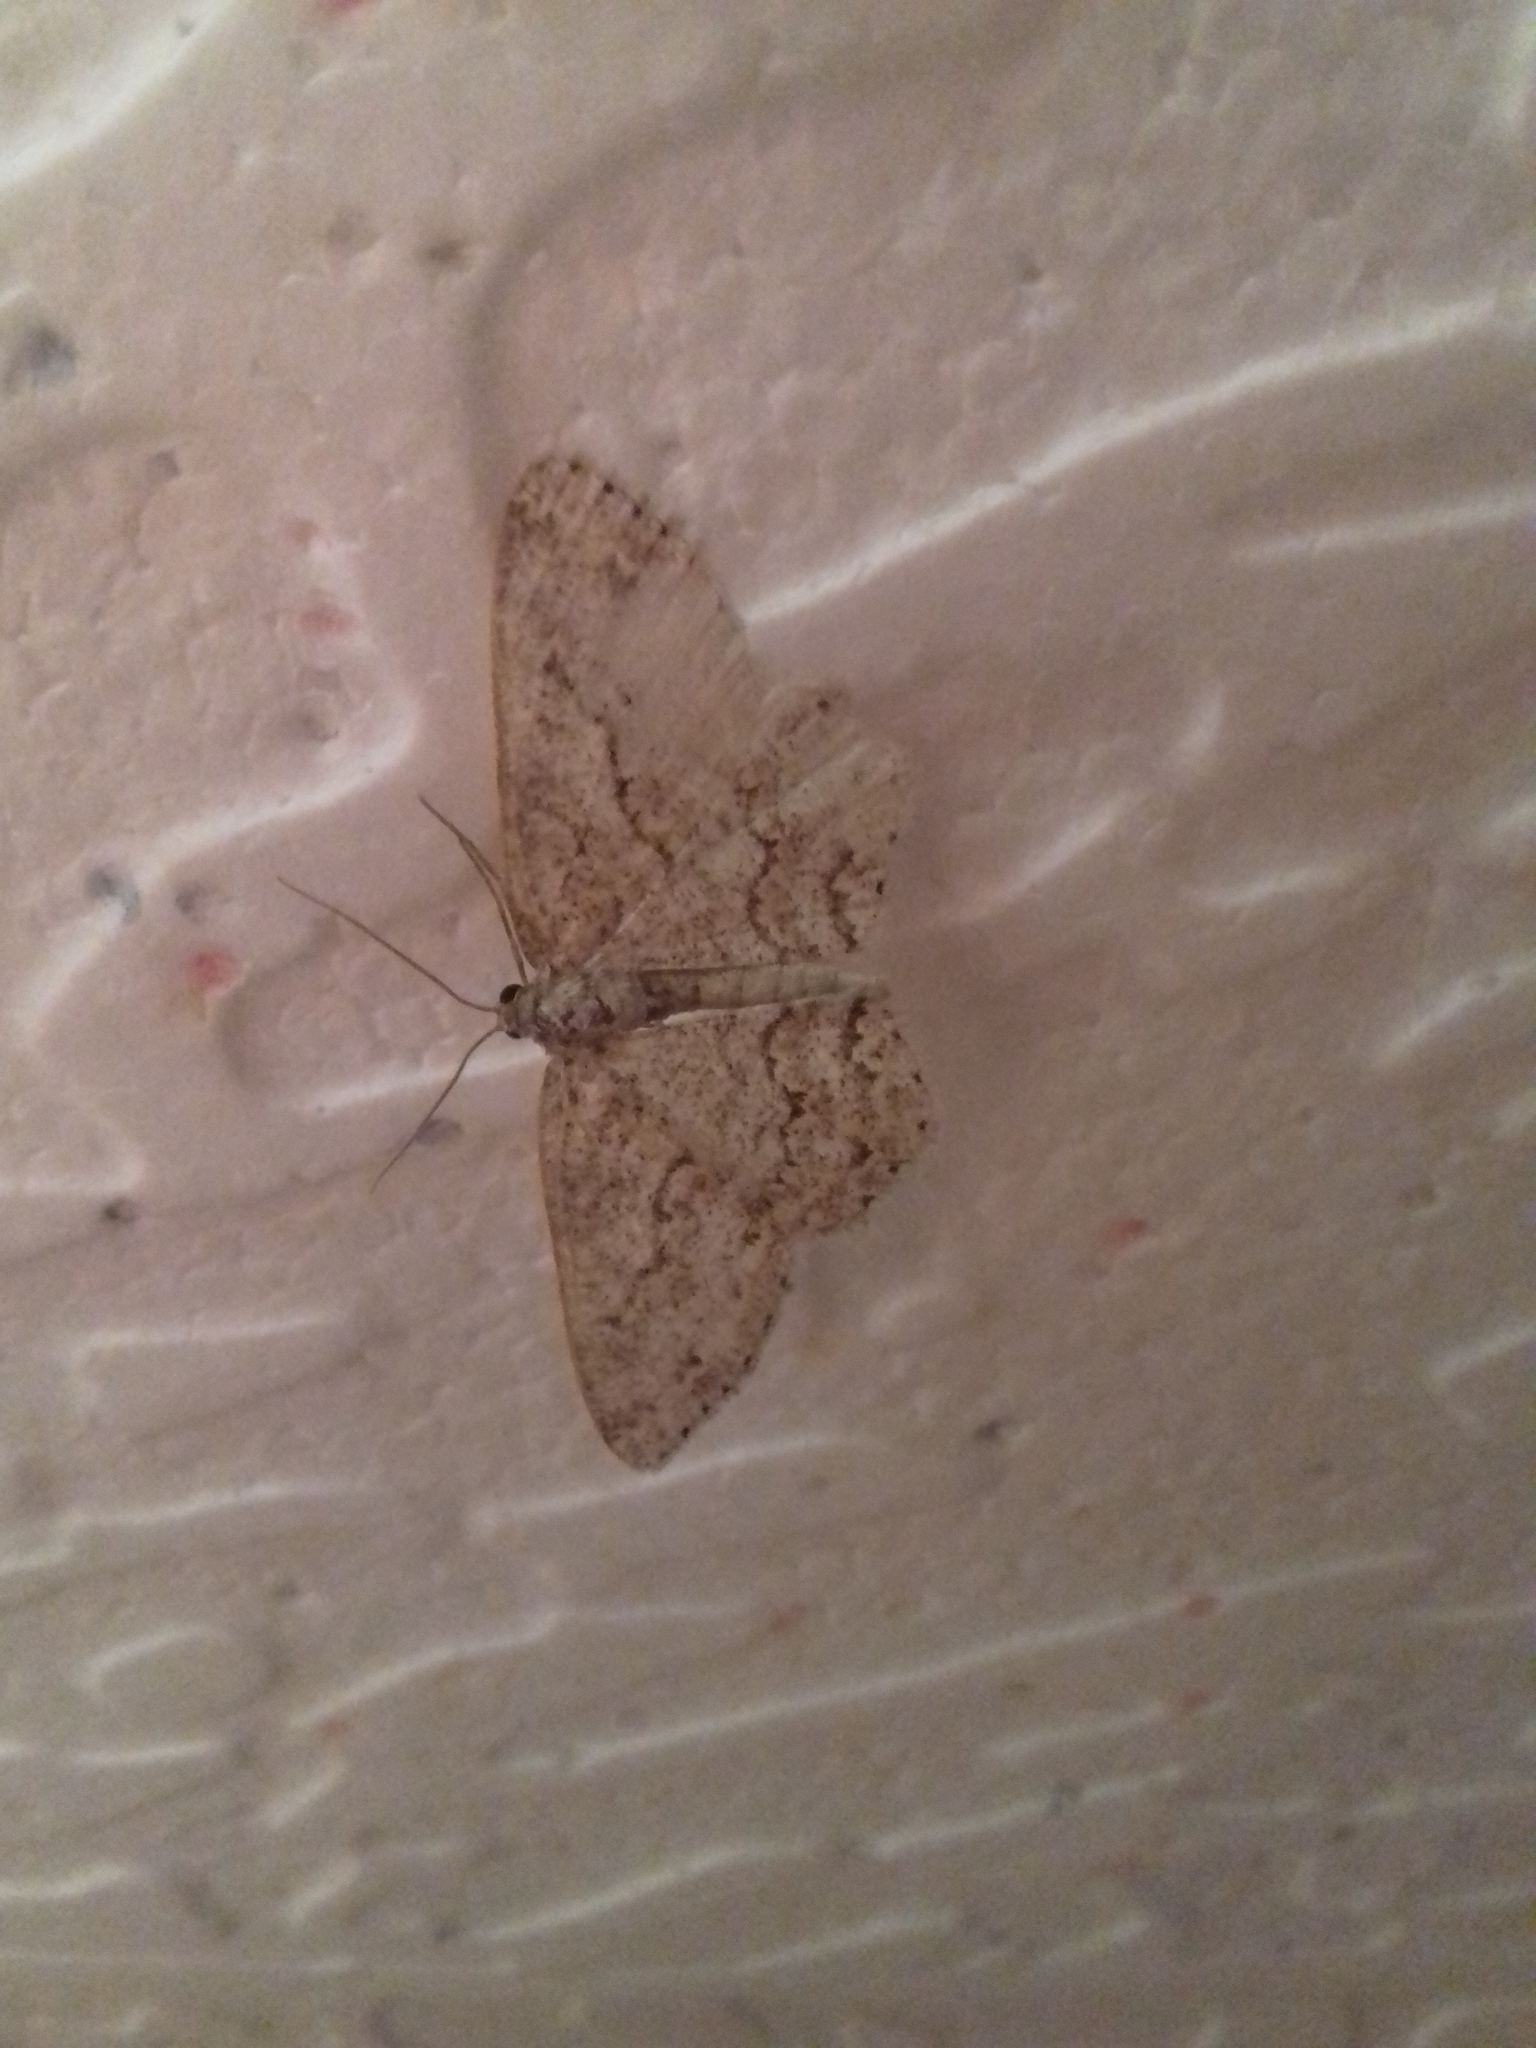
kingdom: Animalia
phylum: Arthropoda
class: Insecta
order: Lepidoptera
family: Geometridae
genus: Ectropis
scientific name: Ectropis crepuscularia
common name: Engrailed
